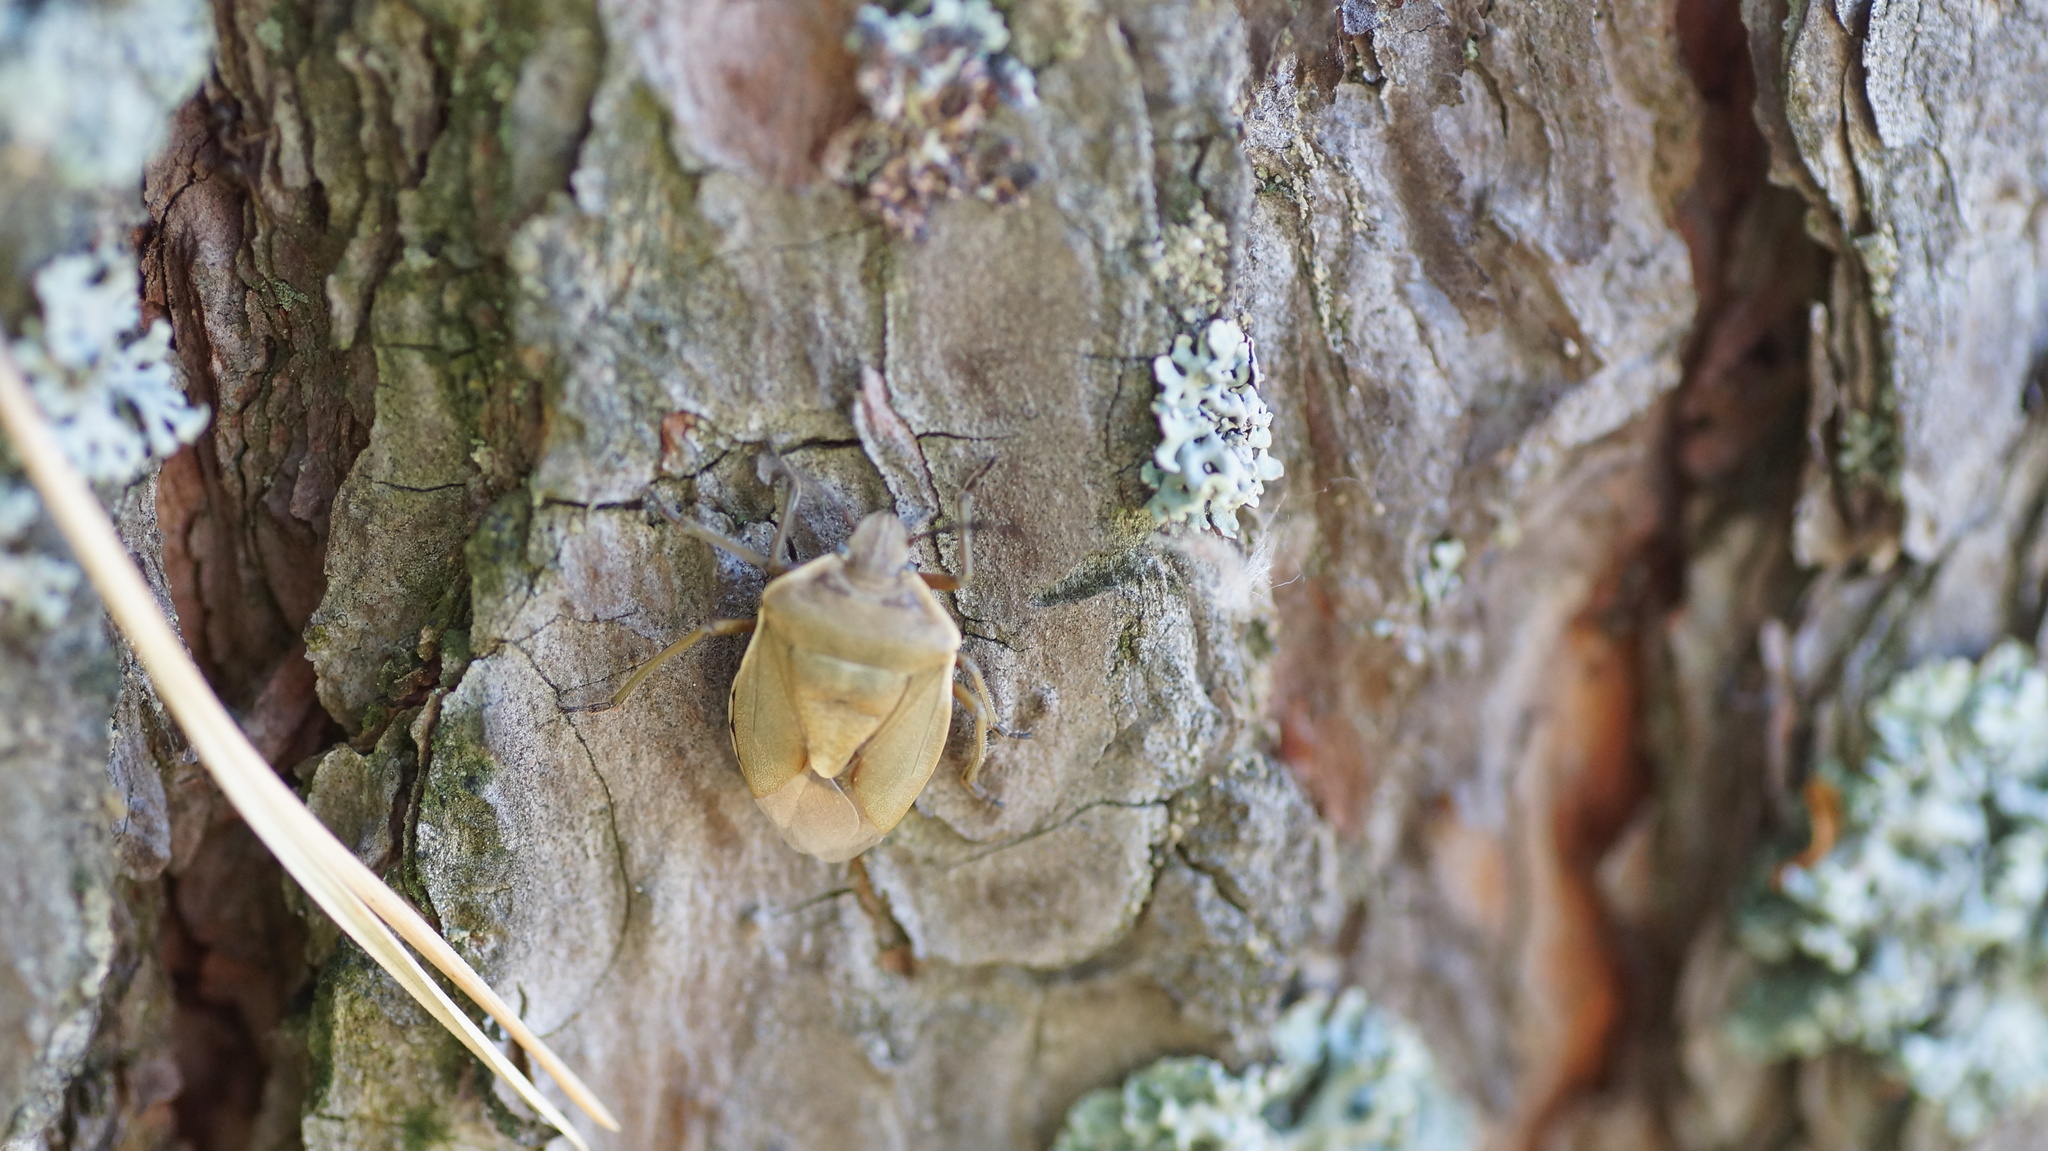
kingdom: Animalia
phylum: Arthropoda
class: Insecta
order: Hemiptera
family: Pentatomidae
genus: Chlorochroa
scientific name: Chlorochroa pinicola
